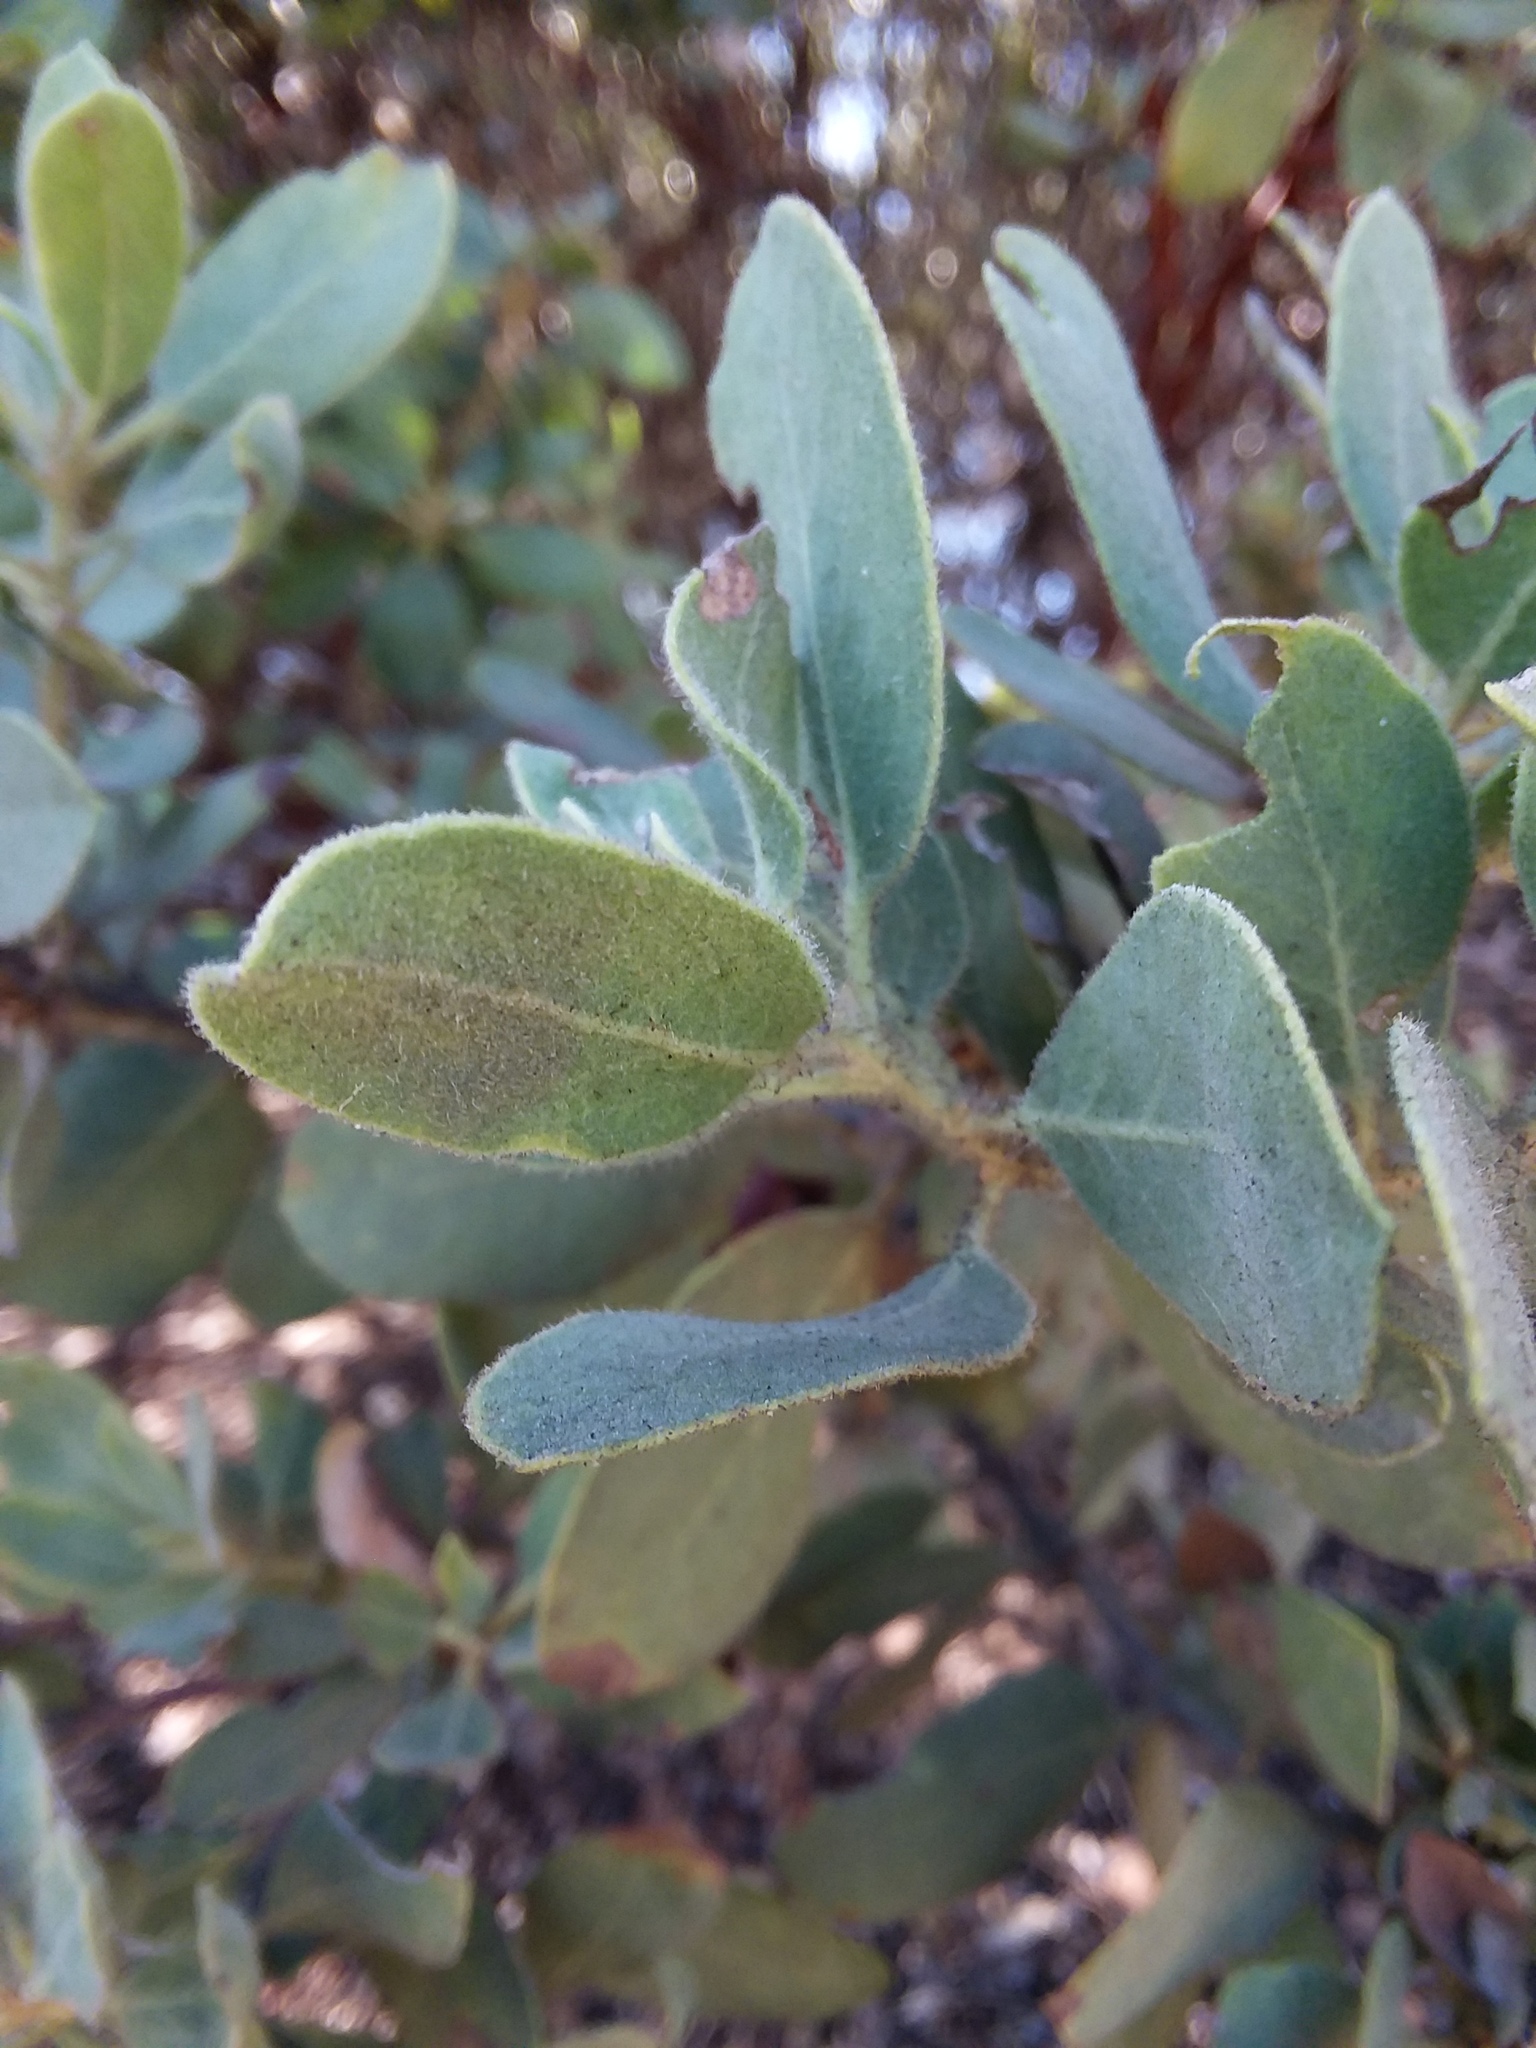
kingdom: Plantae
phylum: Tracheophyta
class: Magnoliopsida
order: Ericales
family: Ericaceae
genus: Arctostaphylos
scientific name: Arctostaphylos glandulosa
